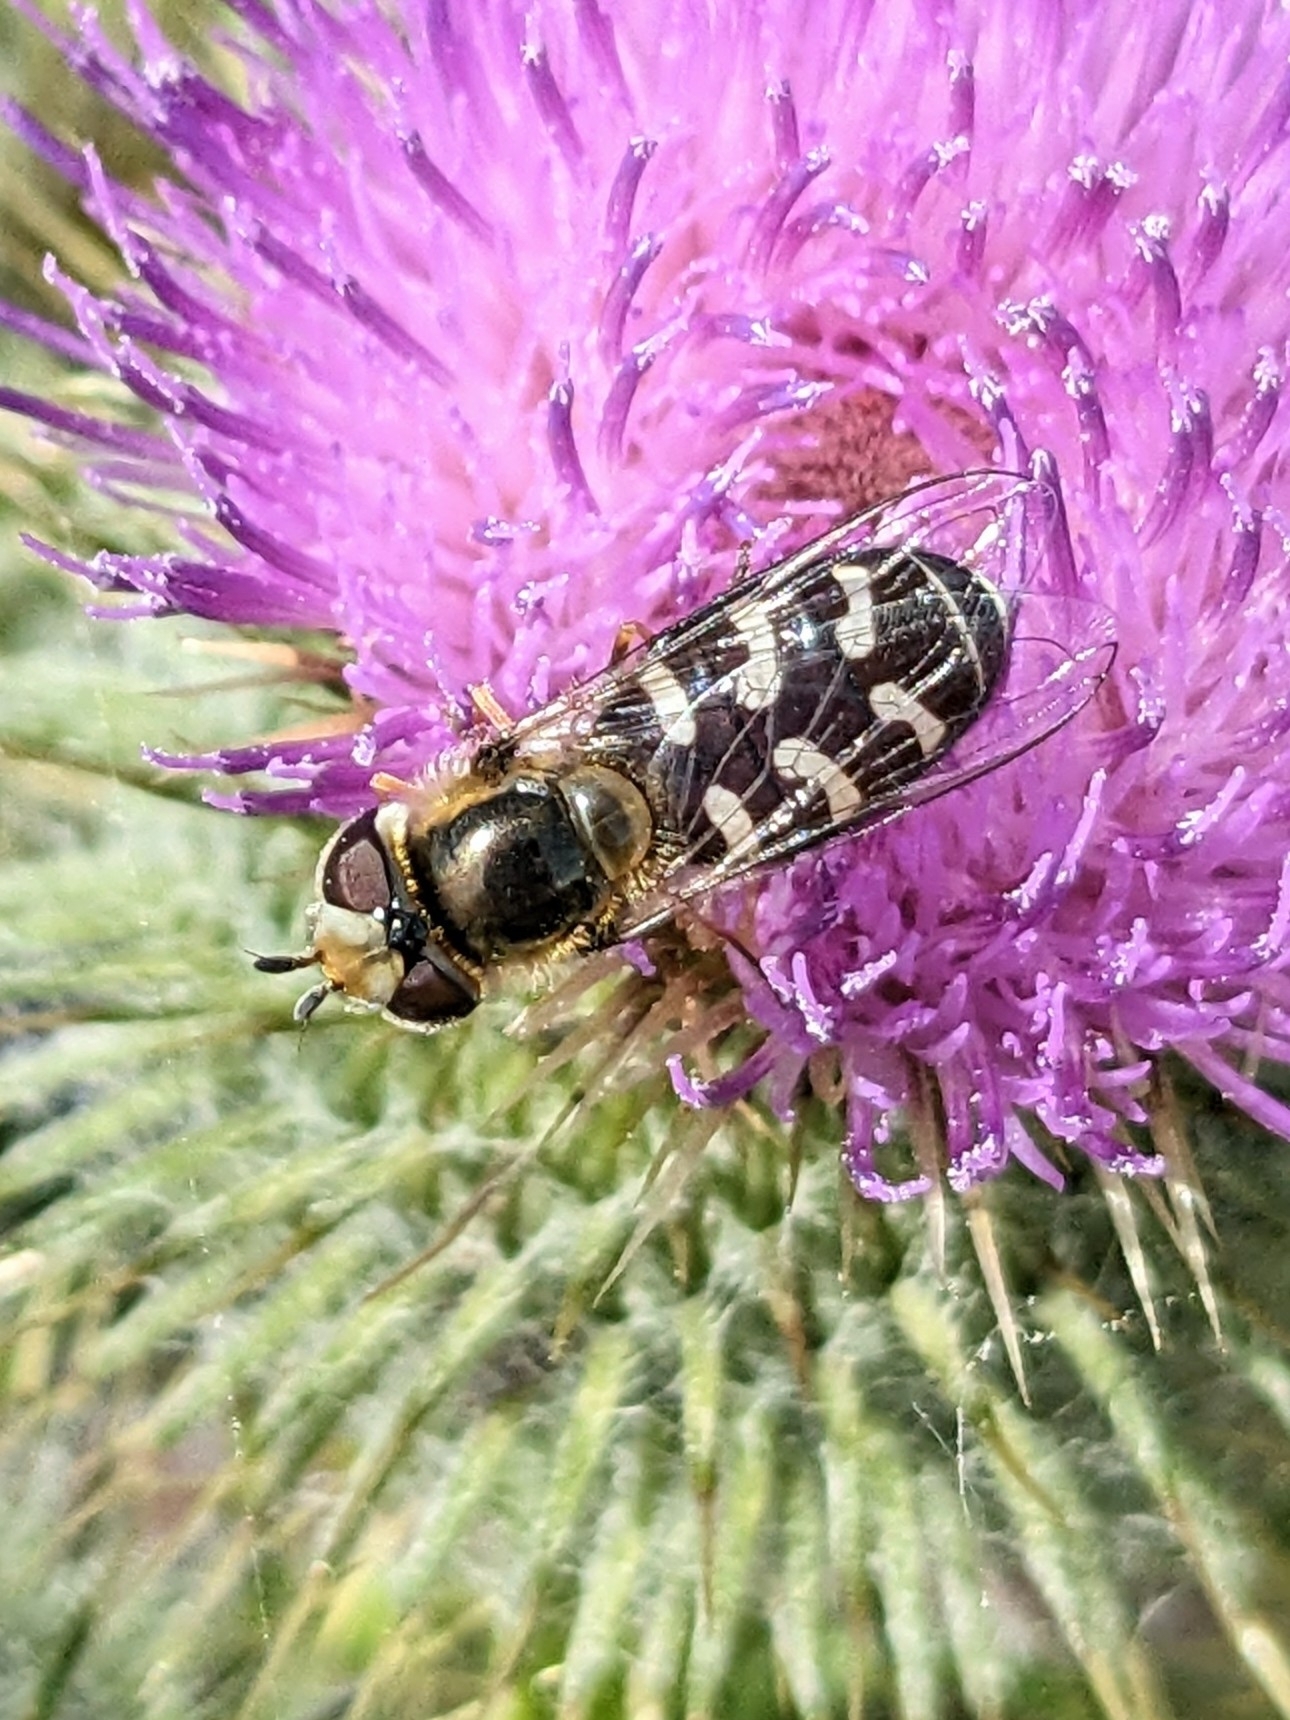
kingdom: Animalia
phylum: Arthropoda
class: Insecta
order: Diptera
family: Syrphidae
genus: Scaeva
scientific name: Scaeva pyrastri
